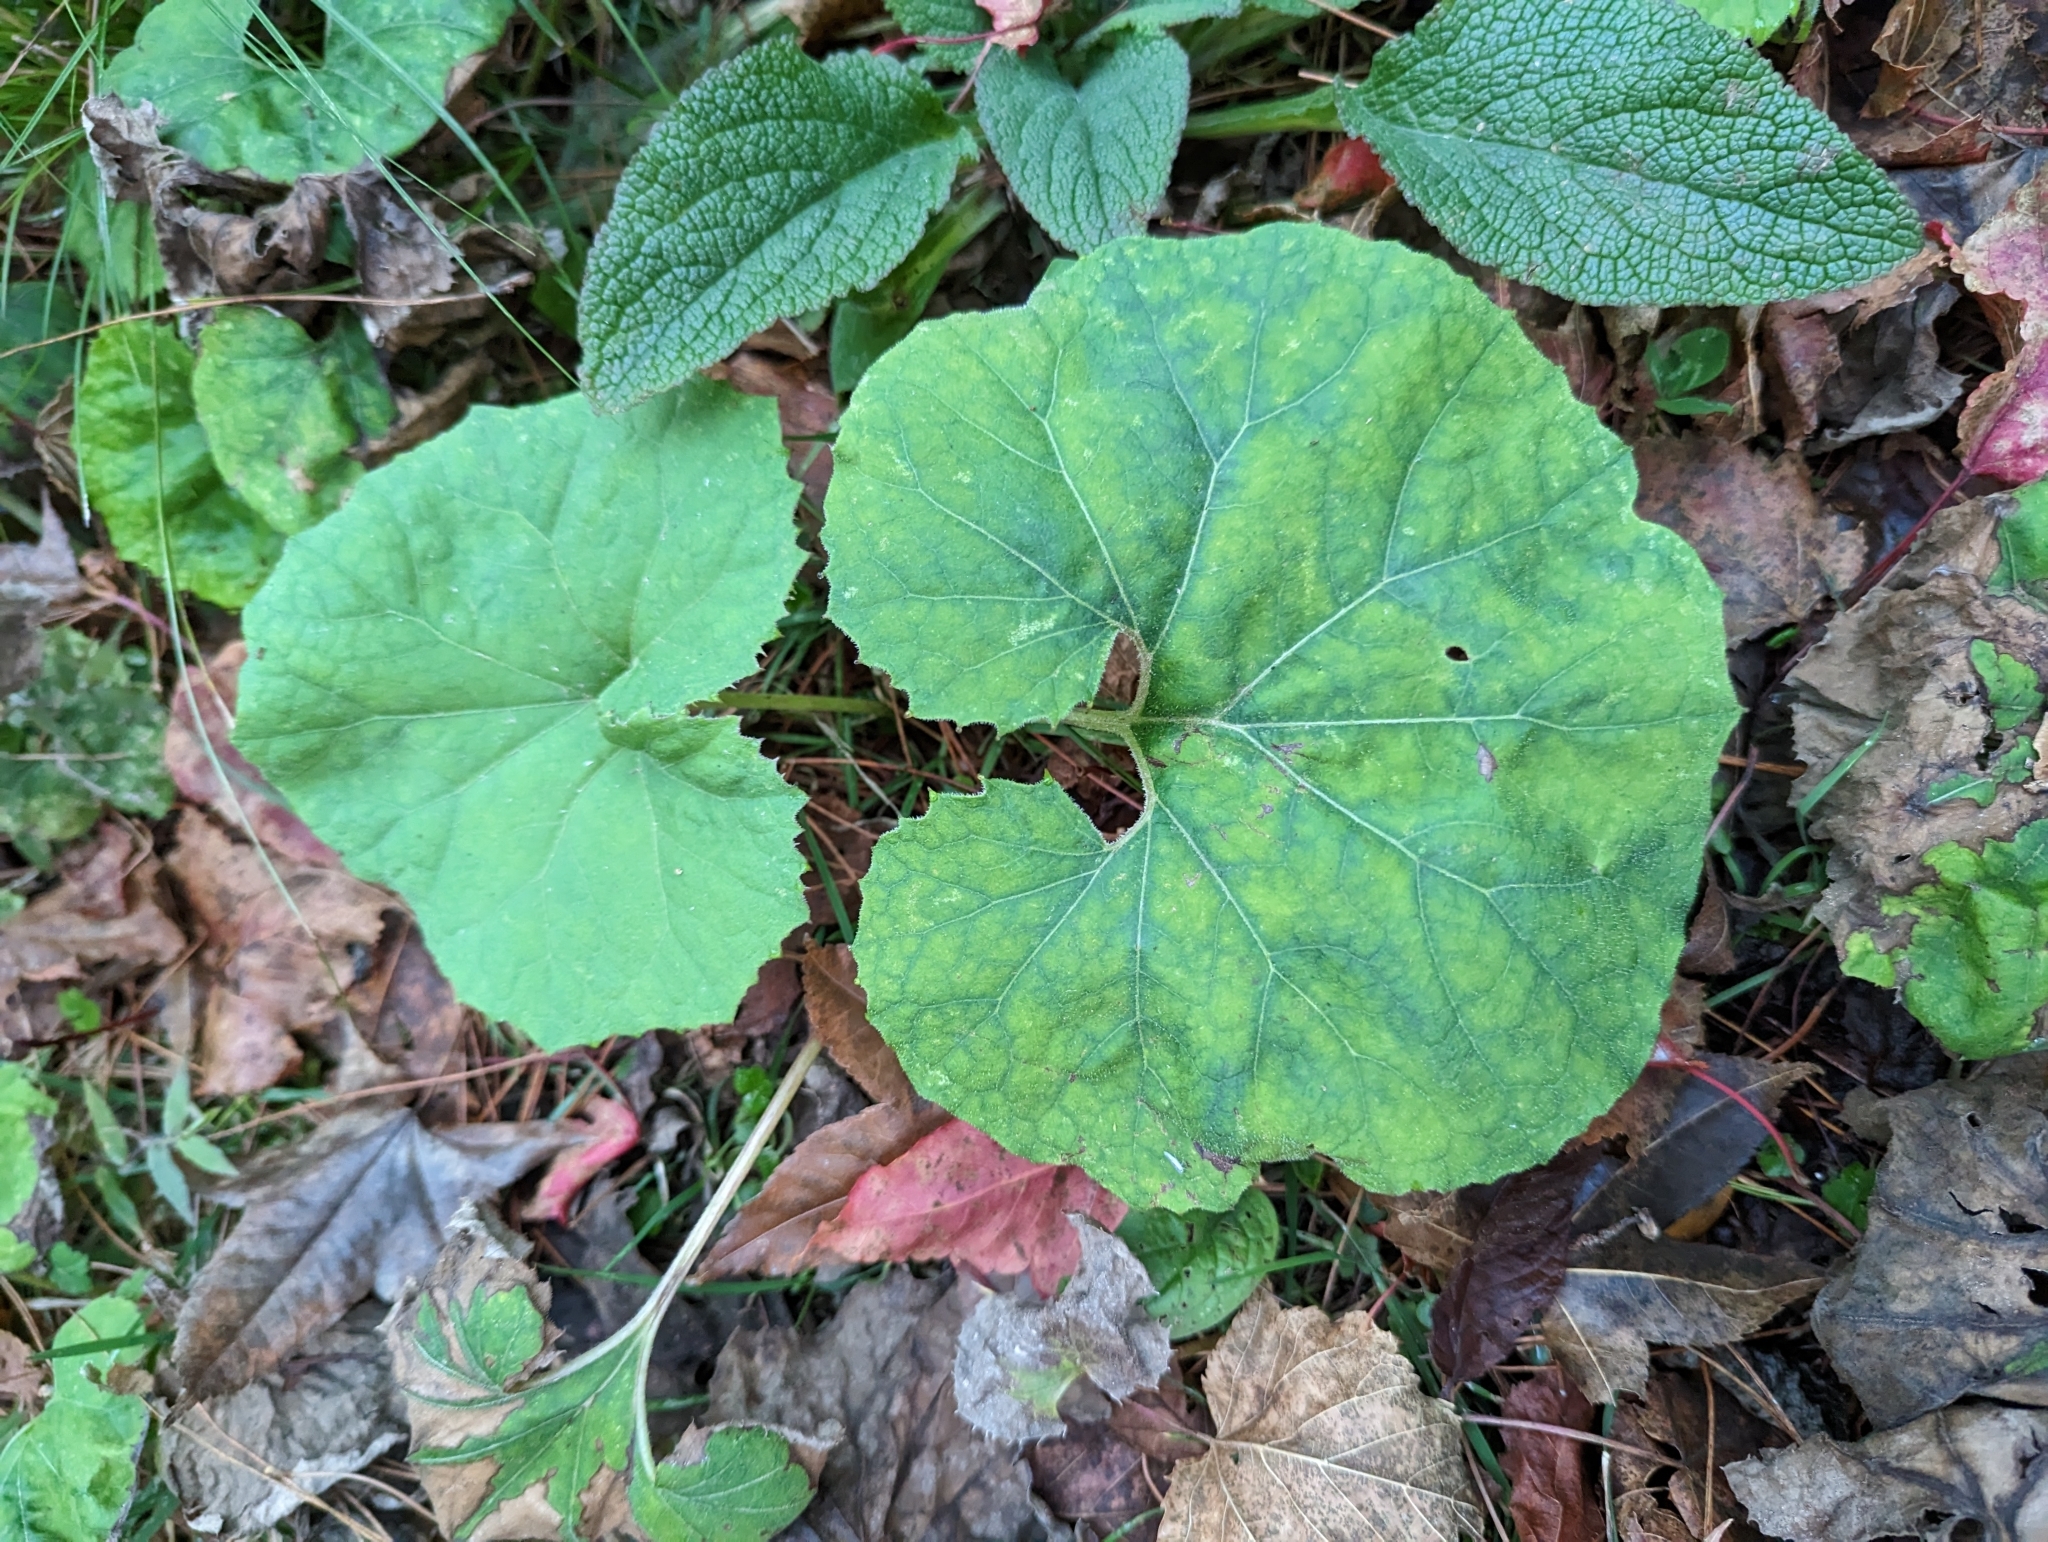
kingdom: Plantae
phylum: Tracheophyta
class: Magnoliopsida
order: Asterales
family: Asteraceae
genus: Petasites
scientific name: Petasites formosanus
